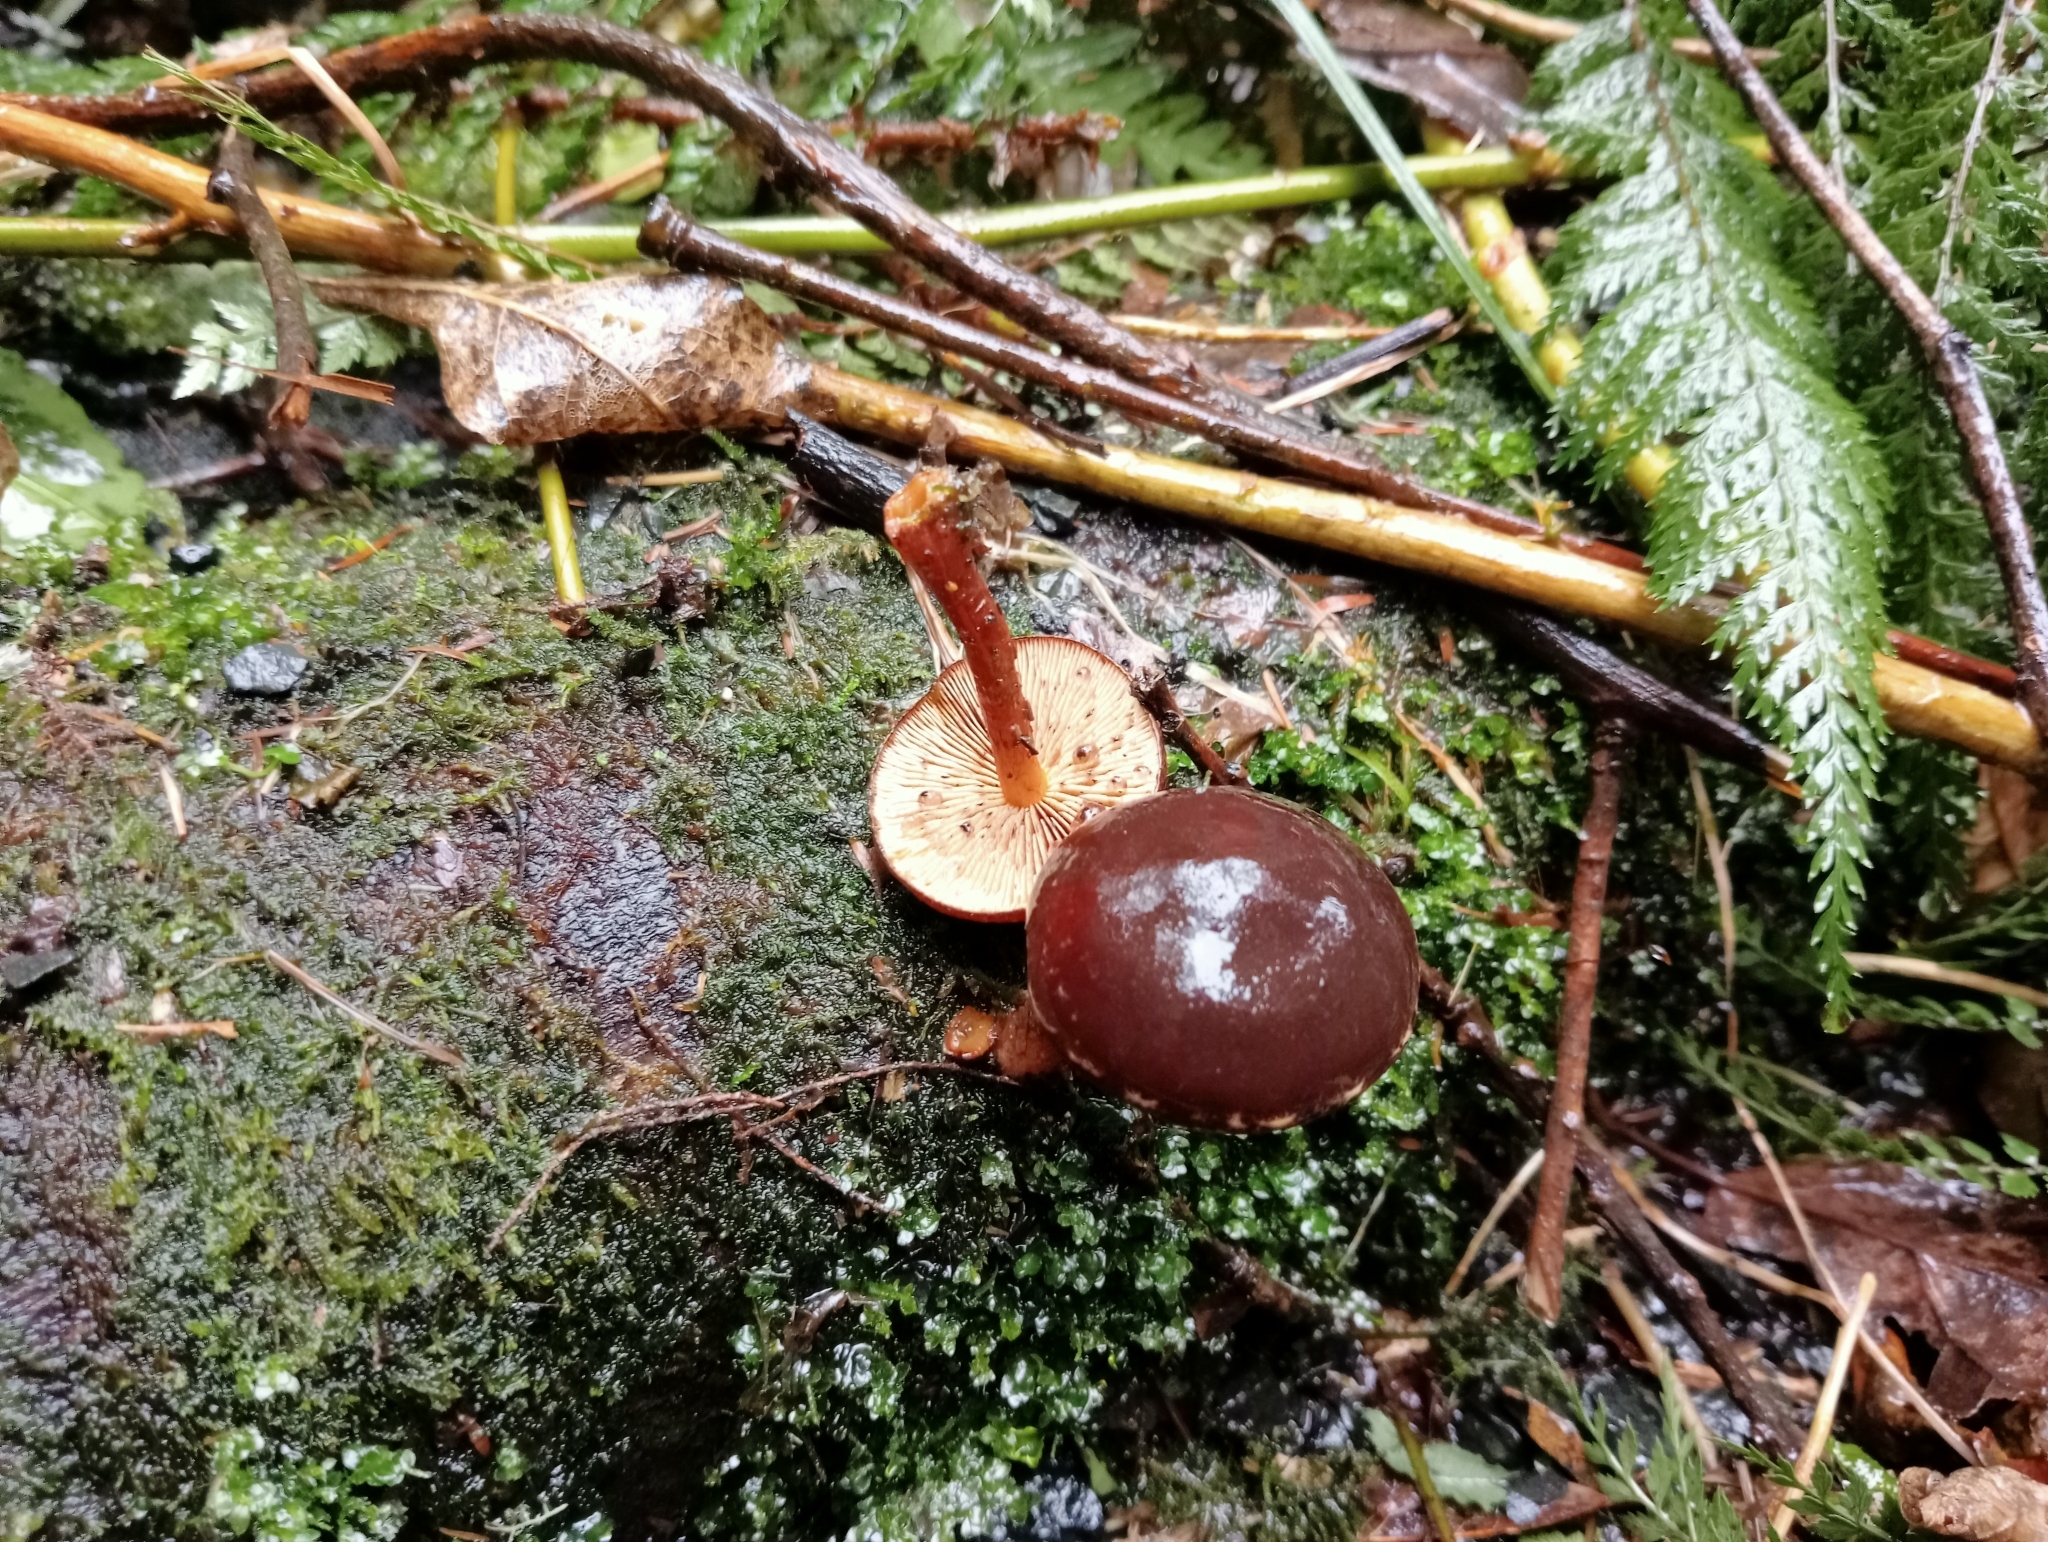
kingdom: Fungi
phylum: Basidiomycota
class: Agaricomycetes
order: Agaricales
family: Strophariaceae
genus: Hypholoma
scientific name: Hypholoma brunneum
